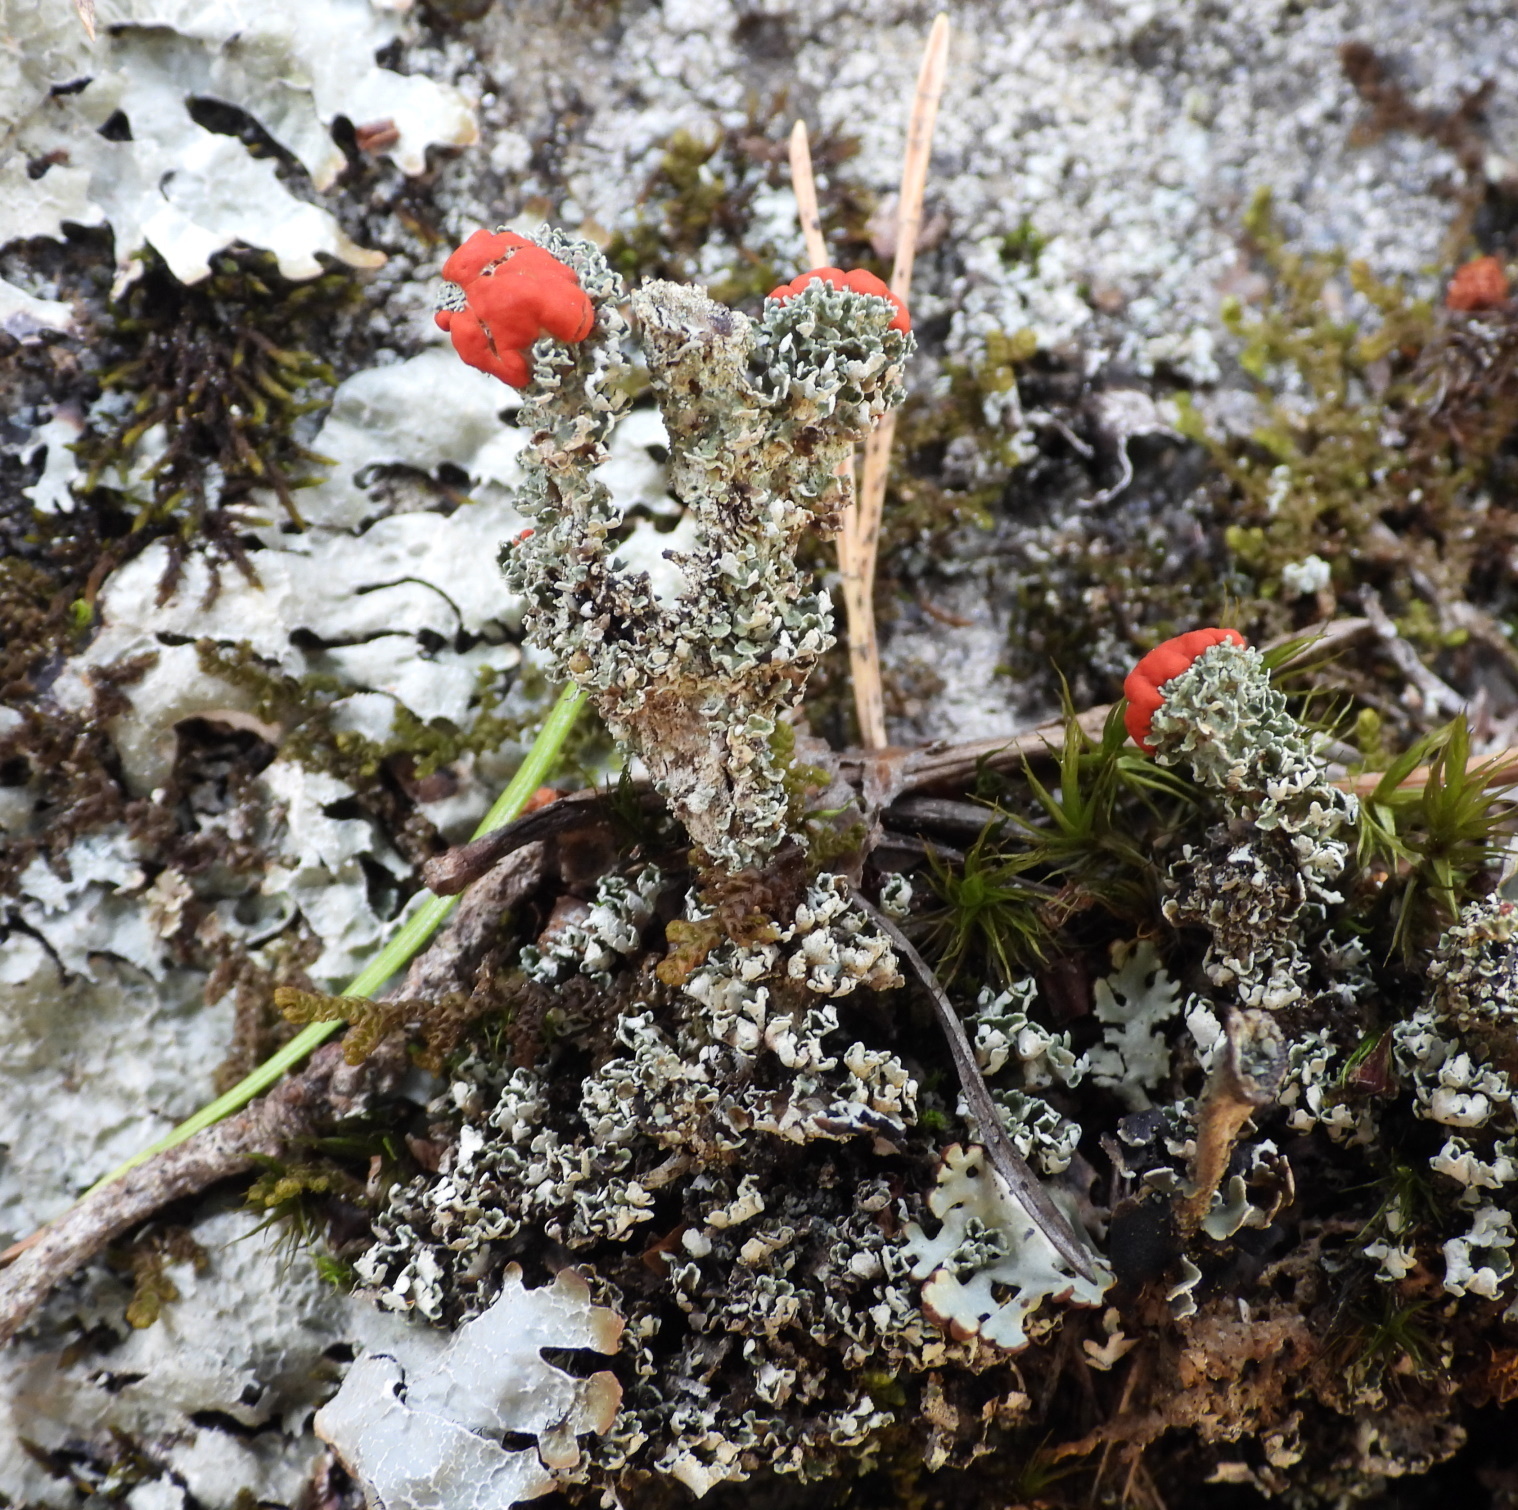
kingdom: Fungi
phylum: Ascomycota
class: Lecanoromycetes
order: Lecanorales
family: Cladoniaceae
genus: Cladonia
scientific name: Cladonia bellidiflora
